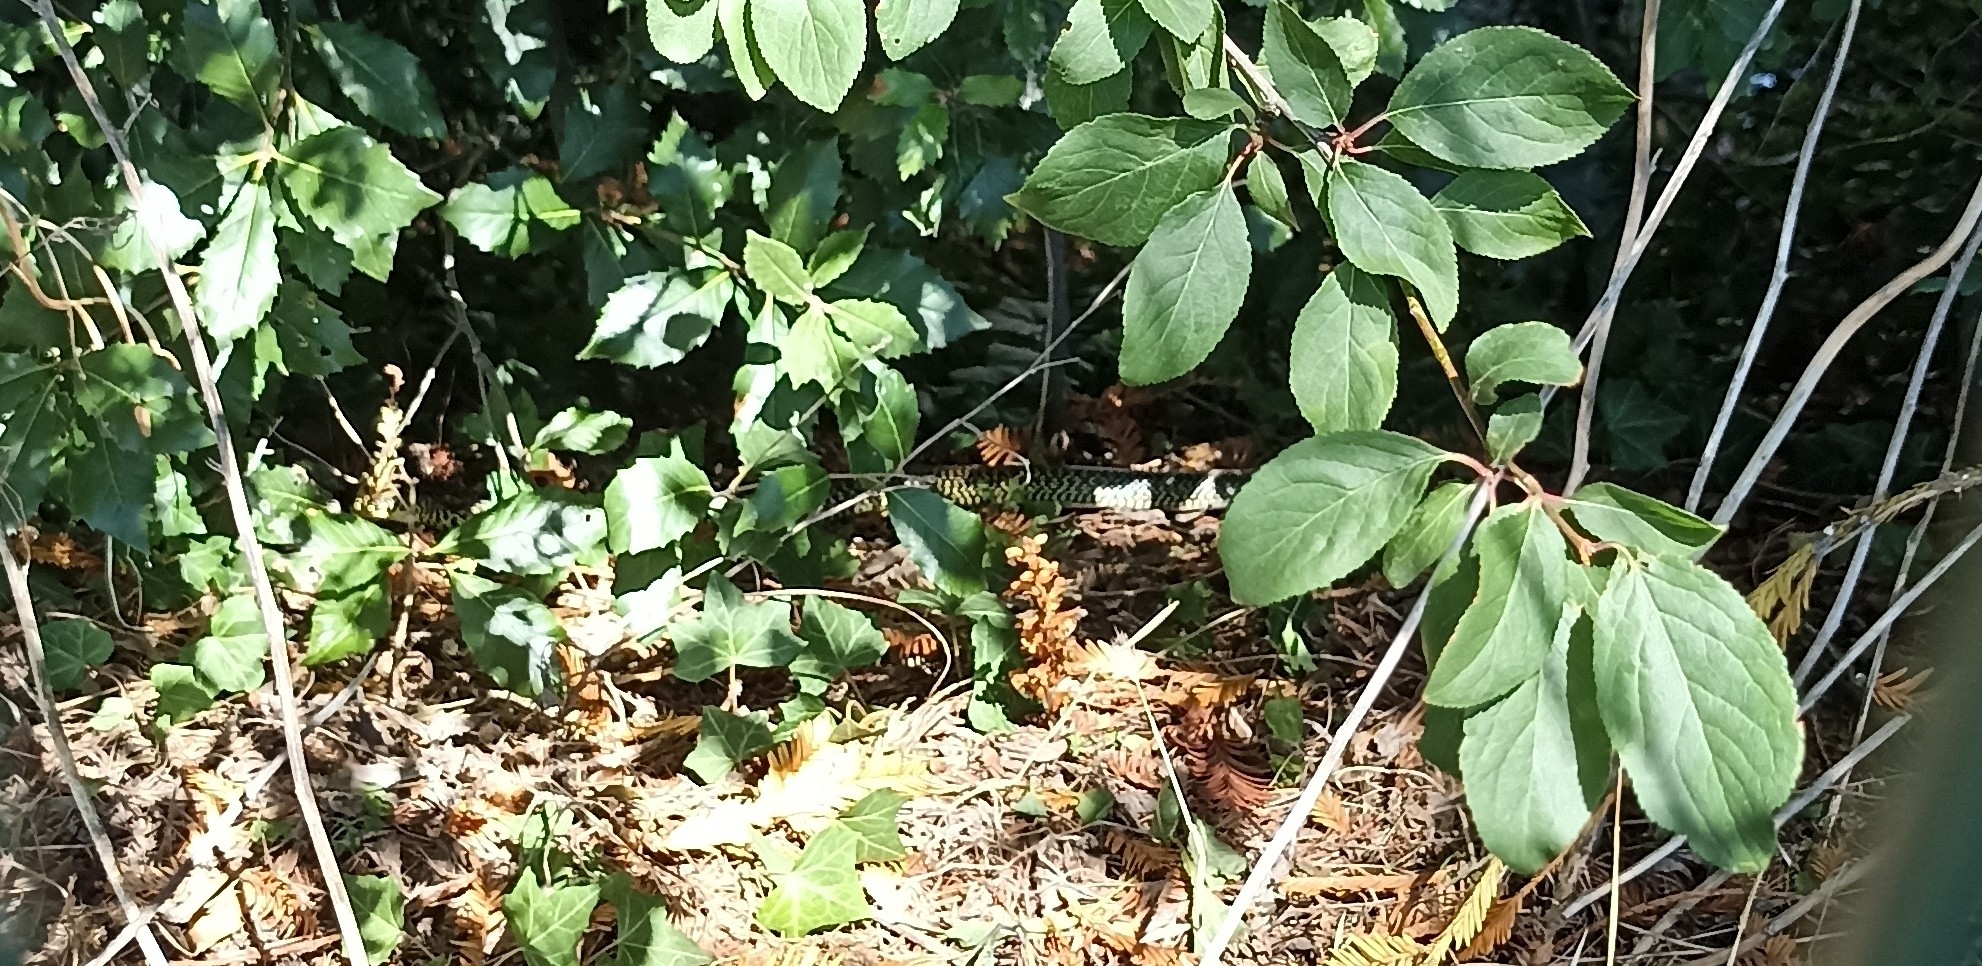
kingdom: Animalia
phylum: Chordata
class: Squamata
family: Colubridae
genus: Hierophis
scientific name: Hierophis viridiflavus
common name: Green whip snake
